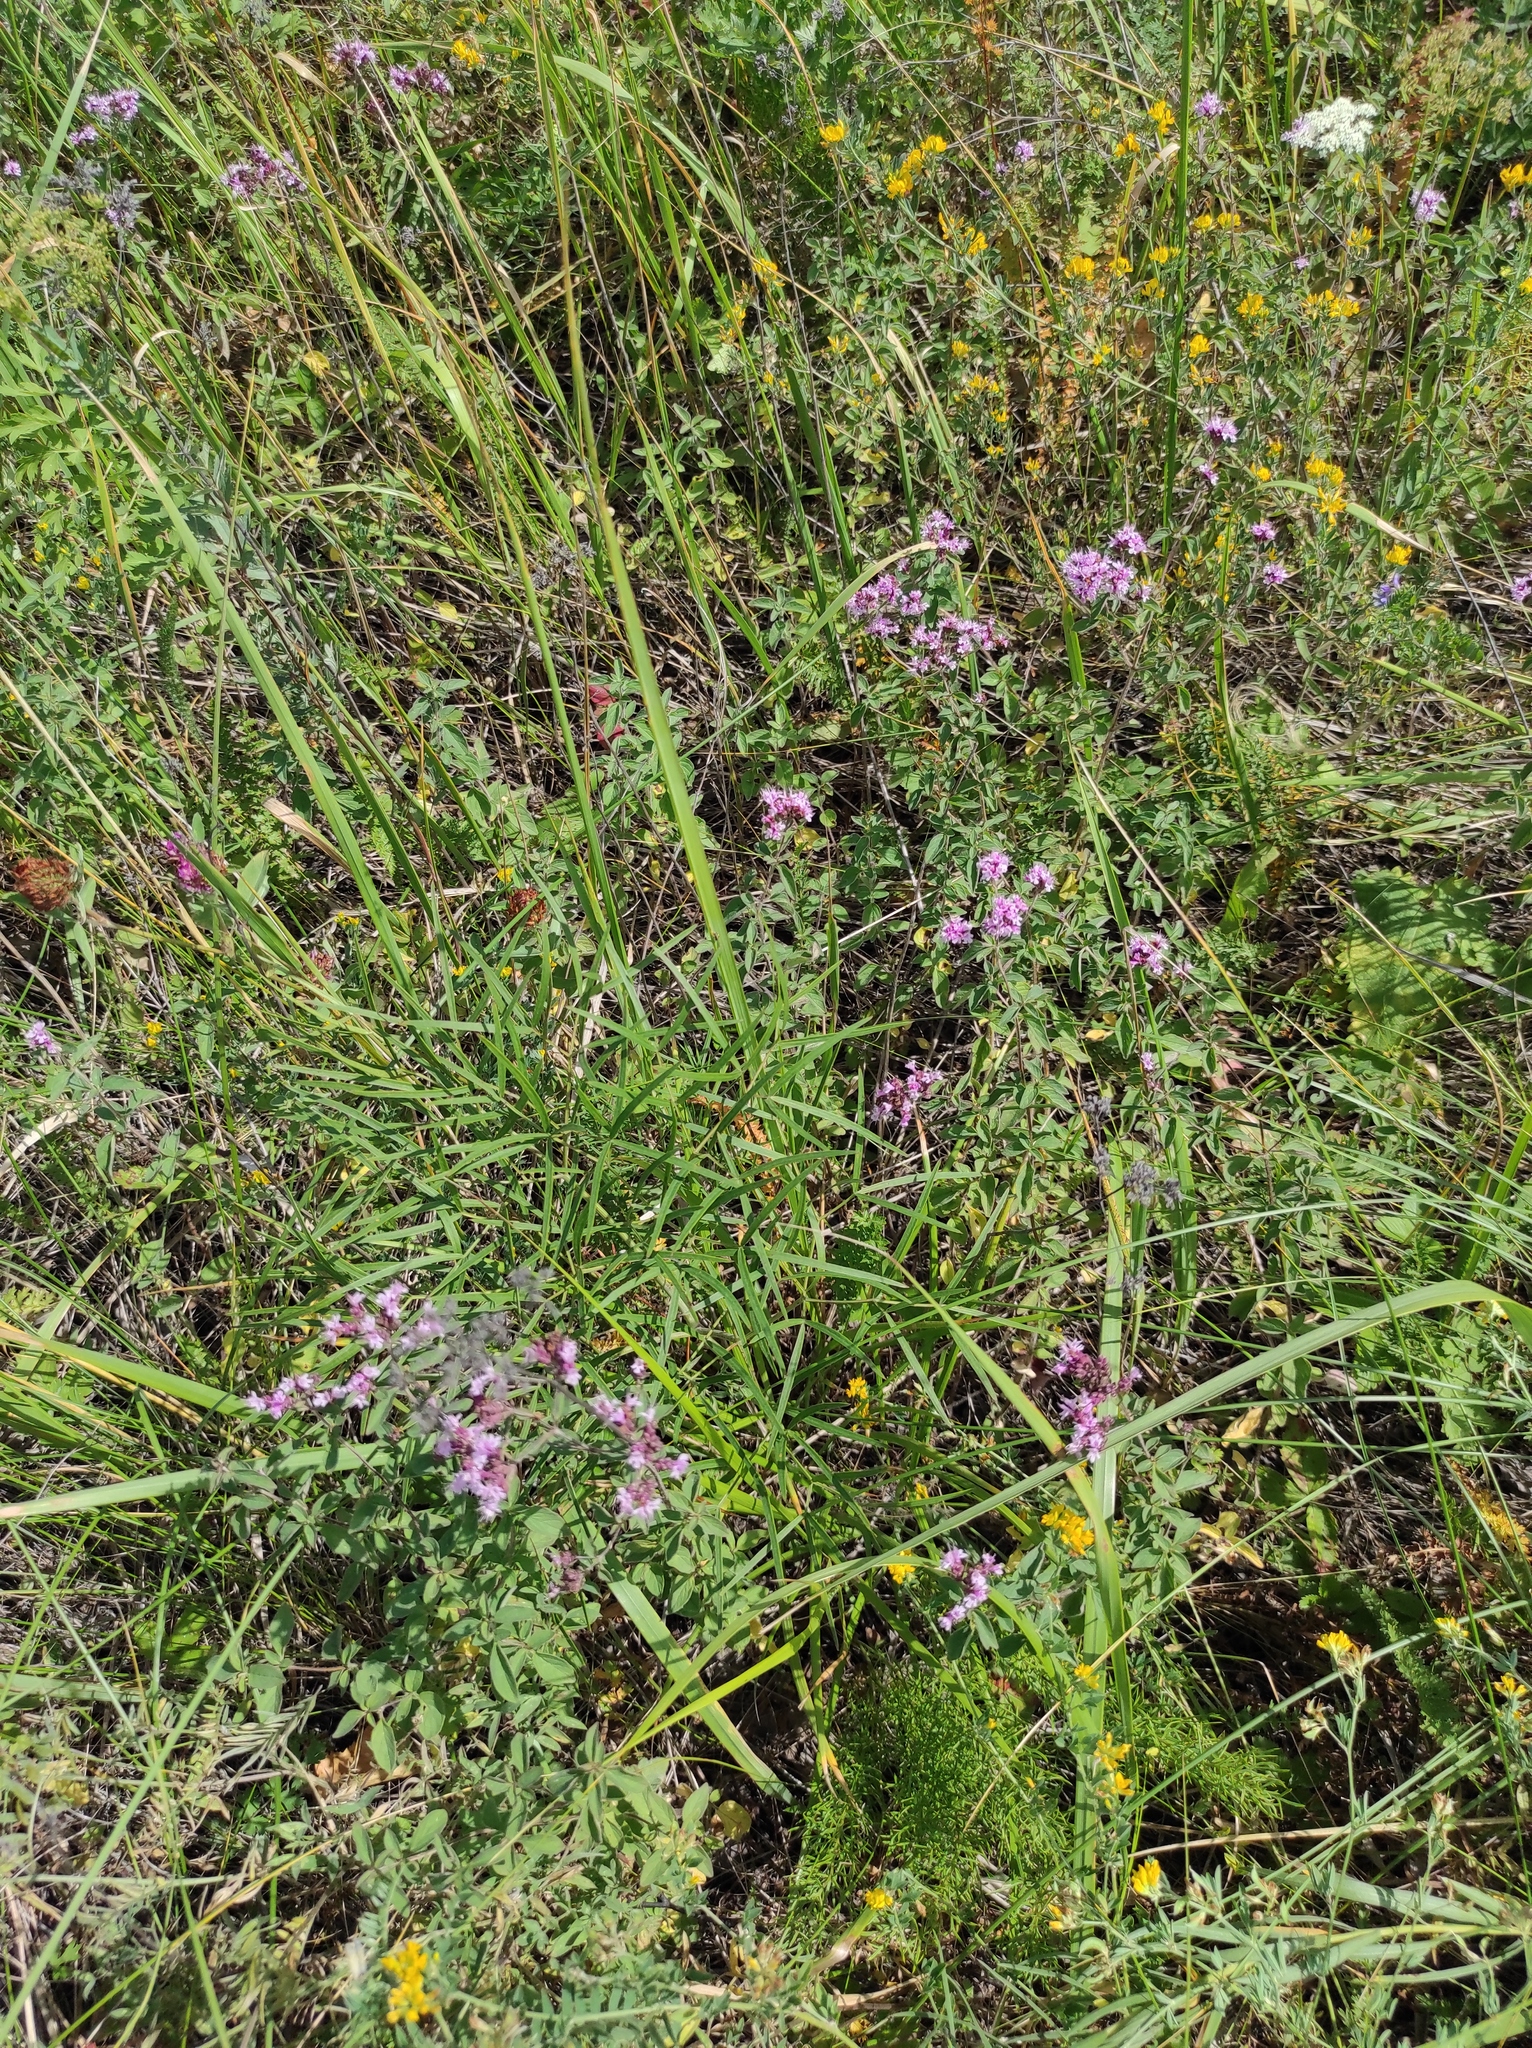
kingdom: Plantae
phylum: Tracheophyta
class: Magnoliopsida
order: Lamiales
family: Lamiaceae
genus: Origanum
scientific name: Origanum vulgare
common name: Wild marjoram
